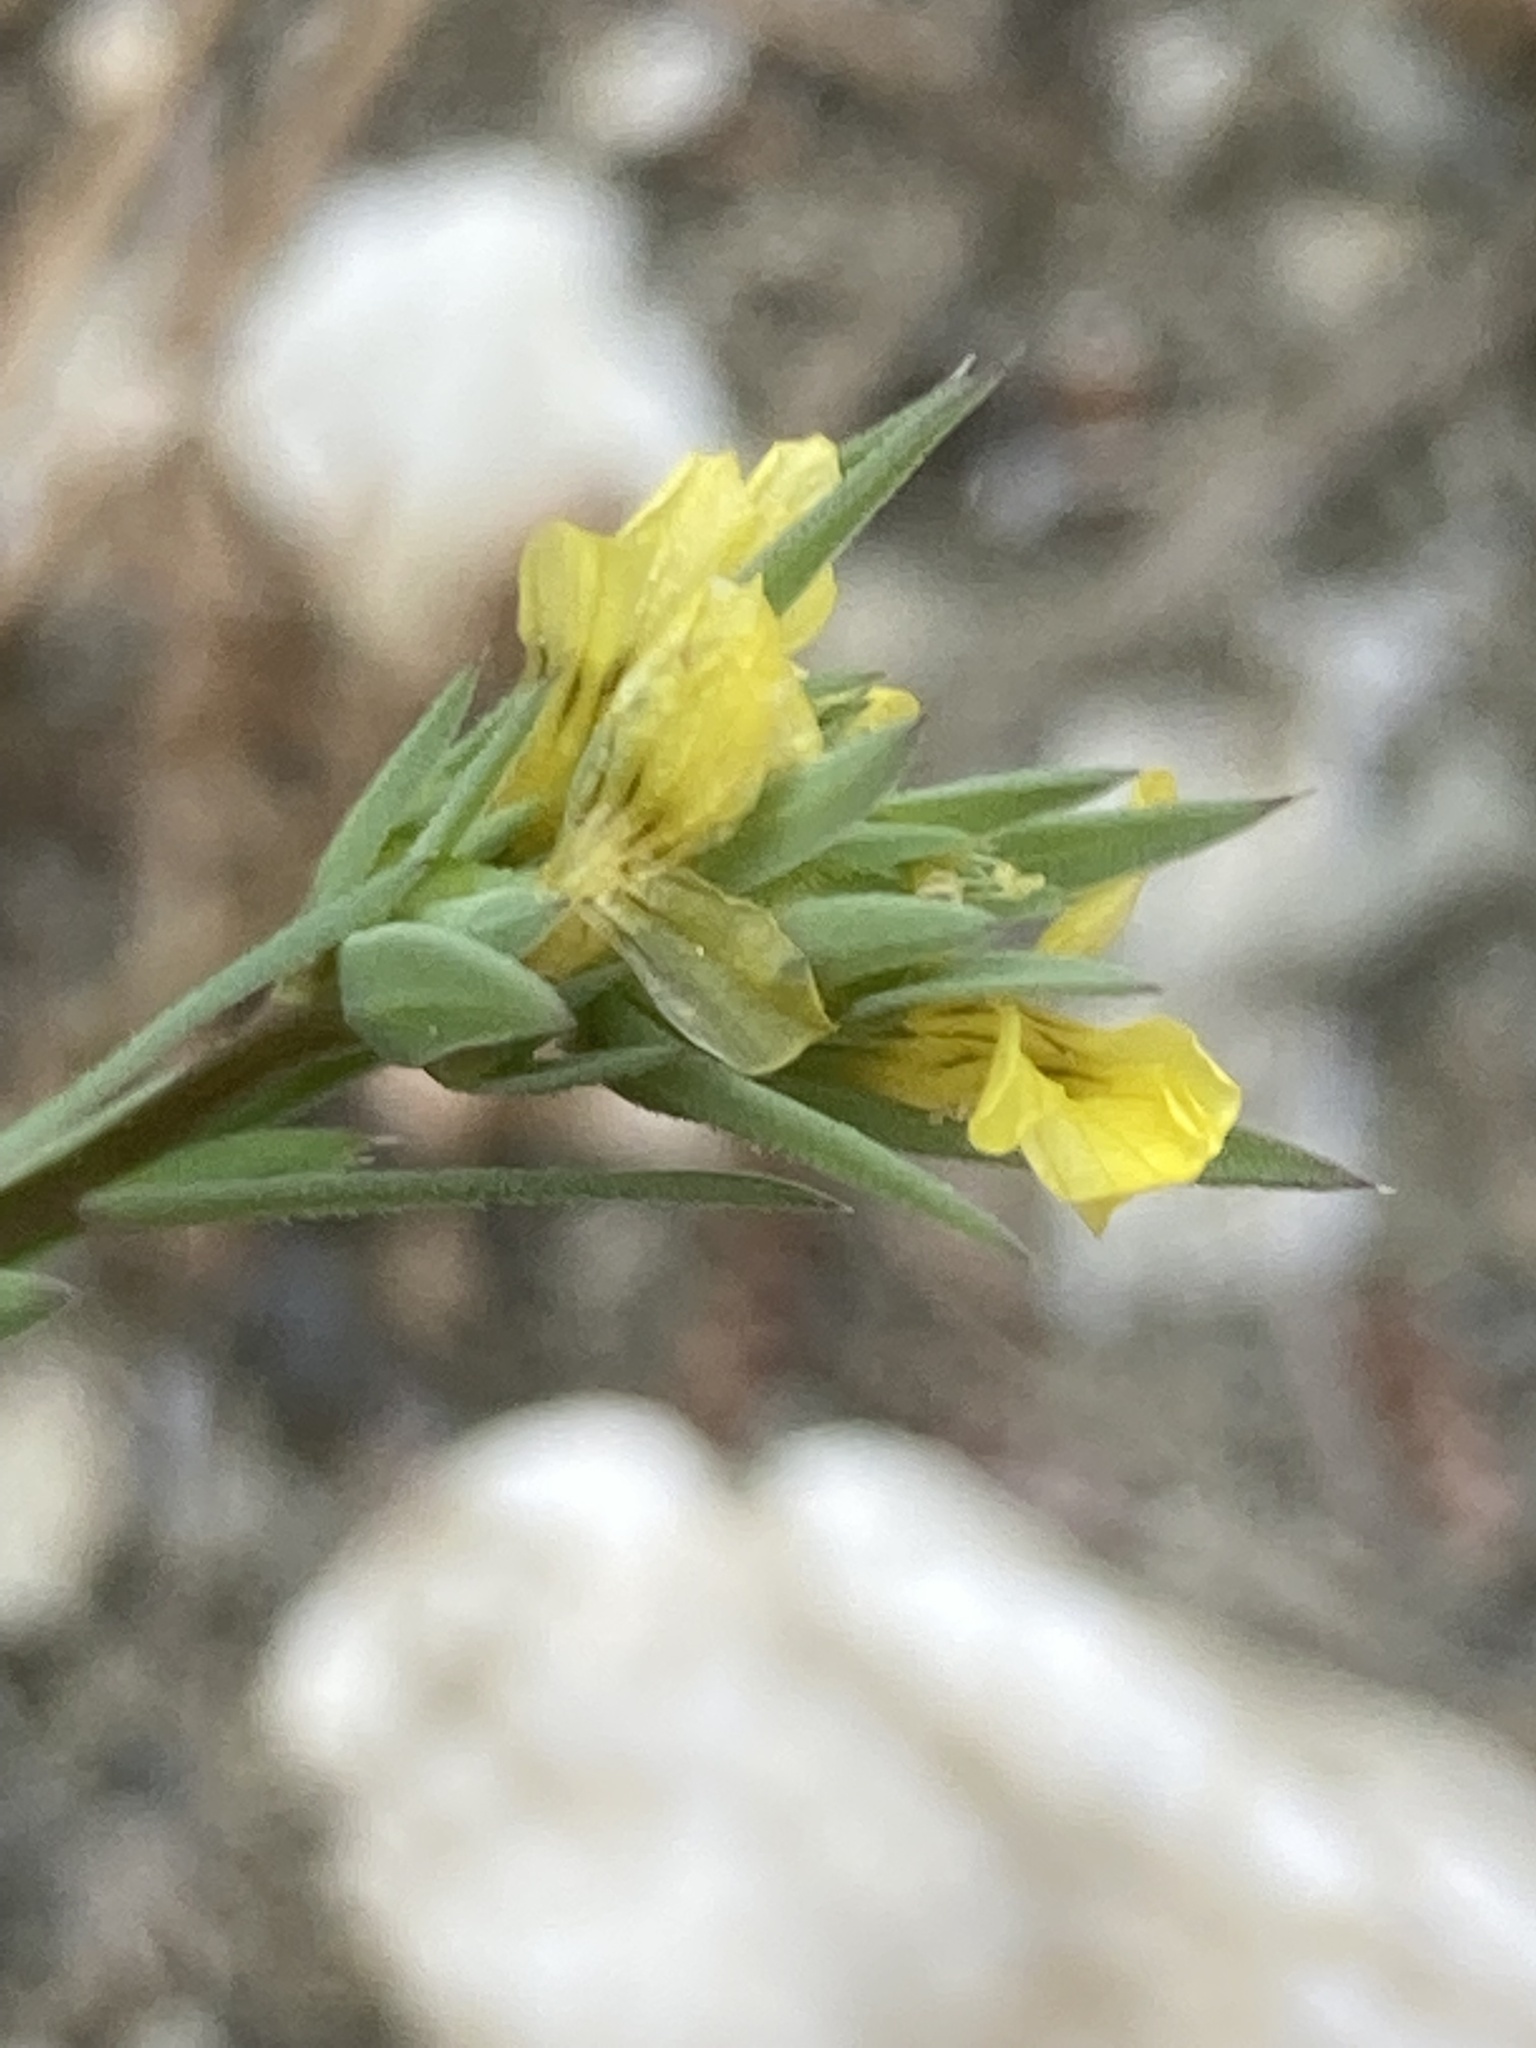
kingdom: Plantae
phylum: Tracheophyta
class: Magnoliopsida
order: Malpighiales
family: Linaceae
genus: Linum
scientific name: Linum strictum
